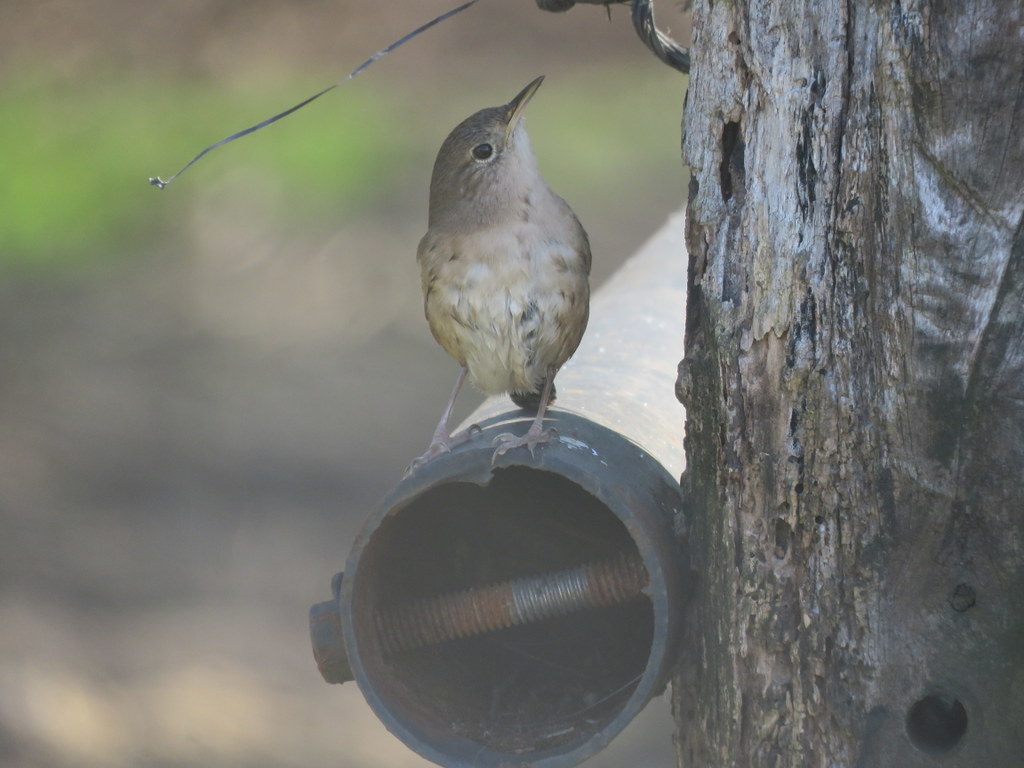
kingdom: Animalia
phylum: Chordata
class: Aves
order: Passeriformes
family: Troglodytidae
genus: Troglodytes
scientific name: Troglodytes aedon
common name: House wren
